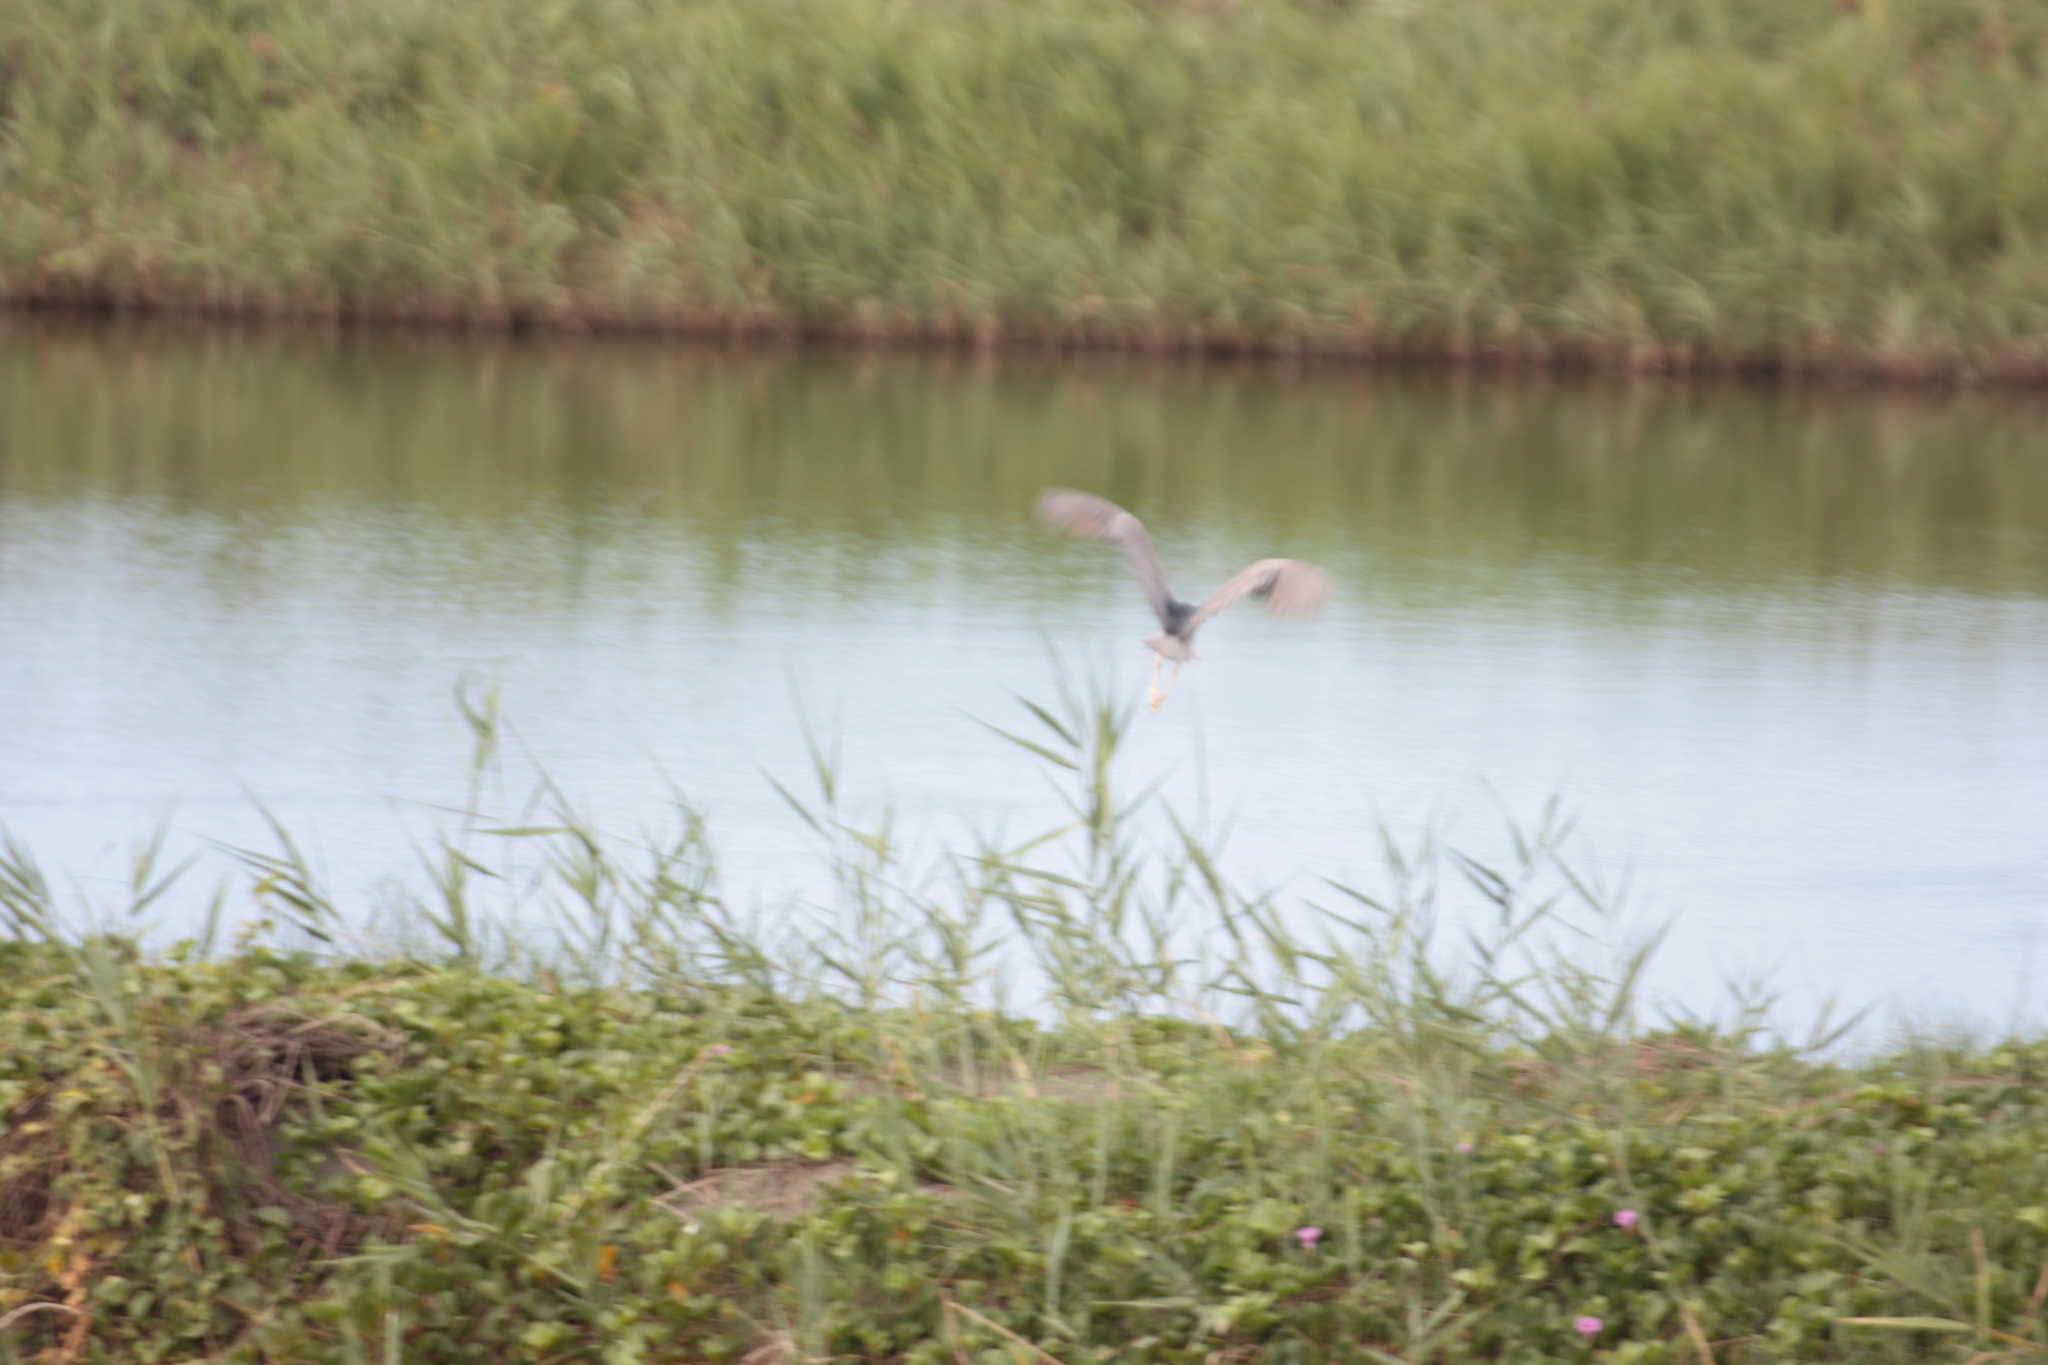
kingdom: Animalia
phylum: Chordata
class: Aves
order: Pelecaniformes
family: Ardeidae
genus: Nycticorax
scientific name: Nycticorax nycticorax
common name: Black-crowned night heron
